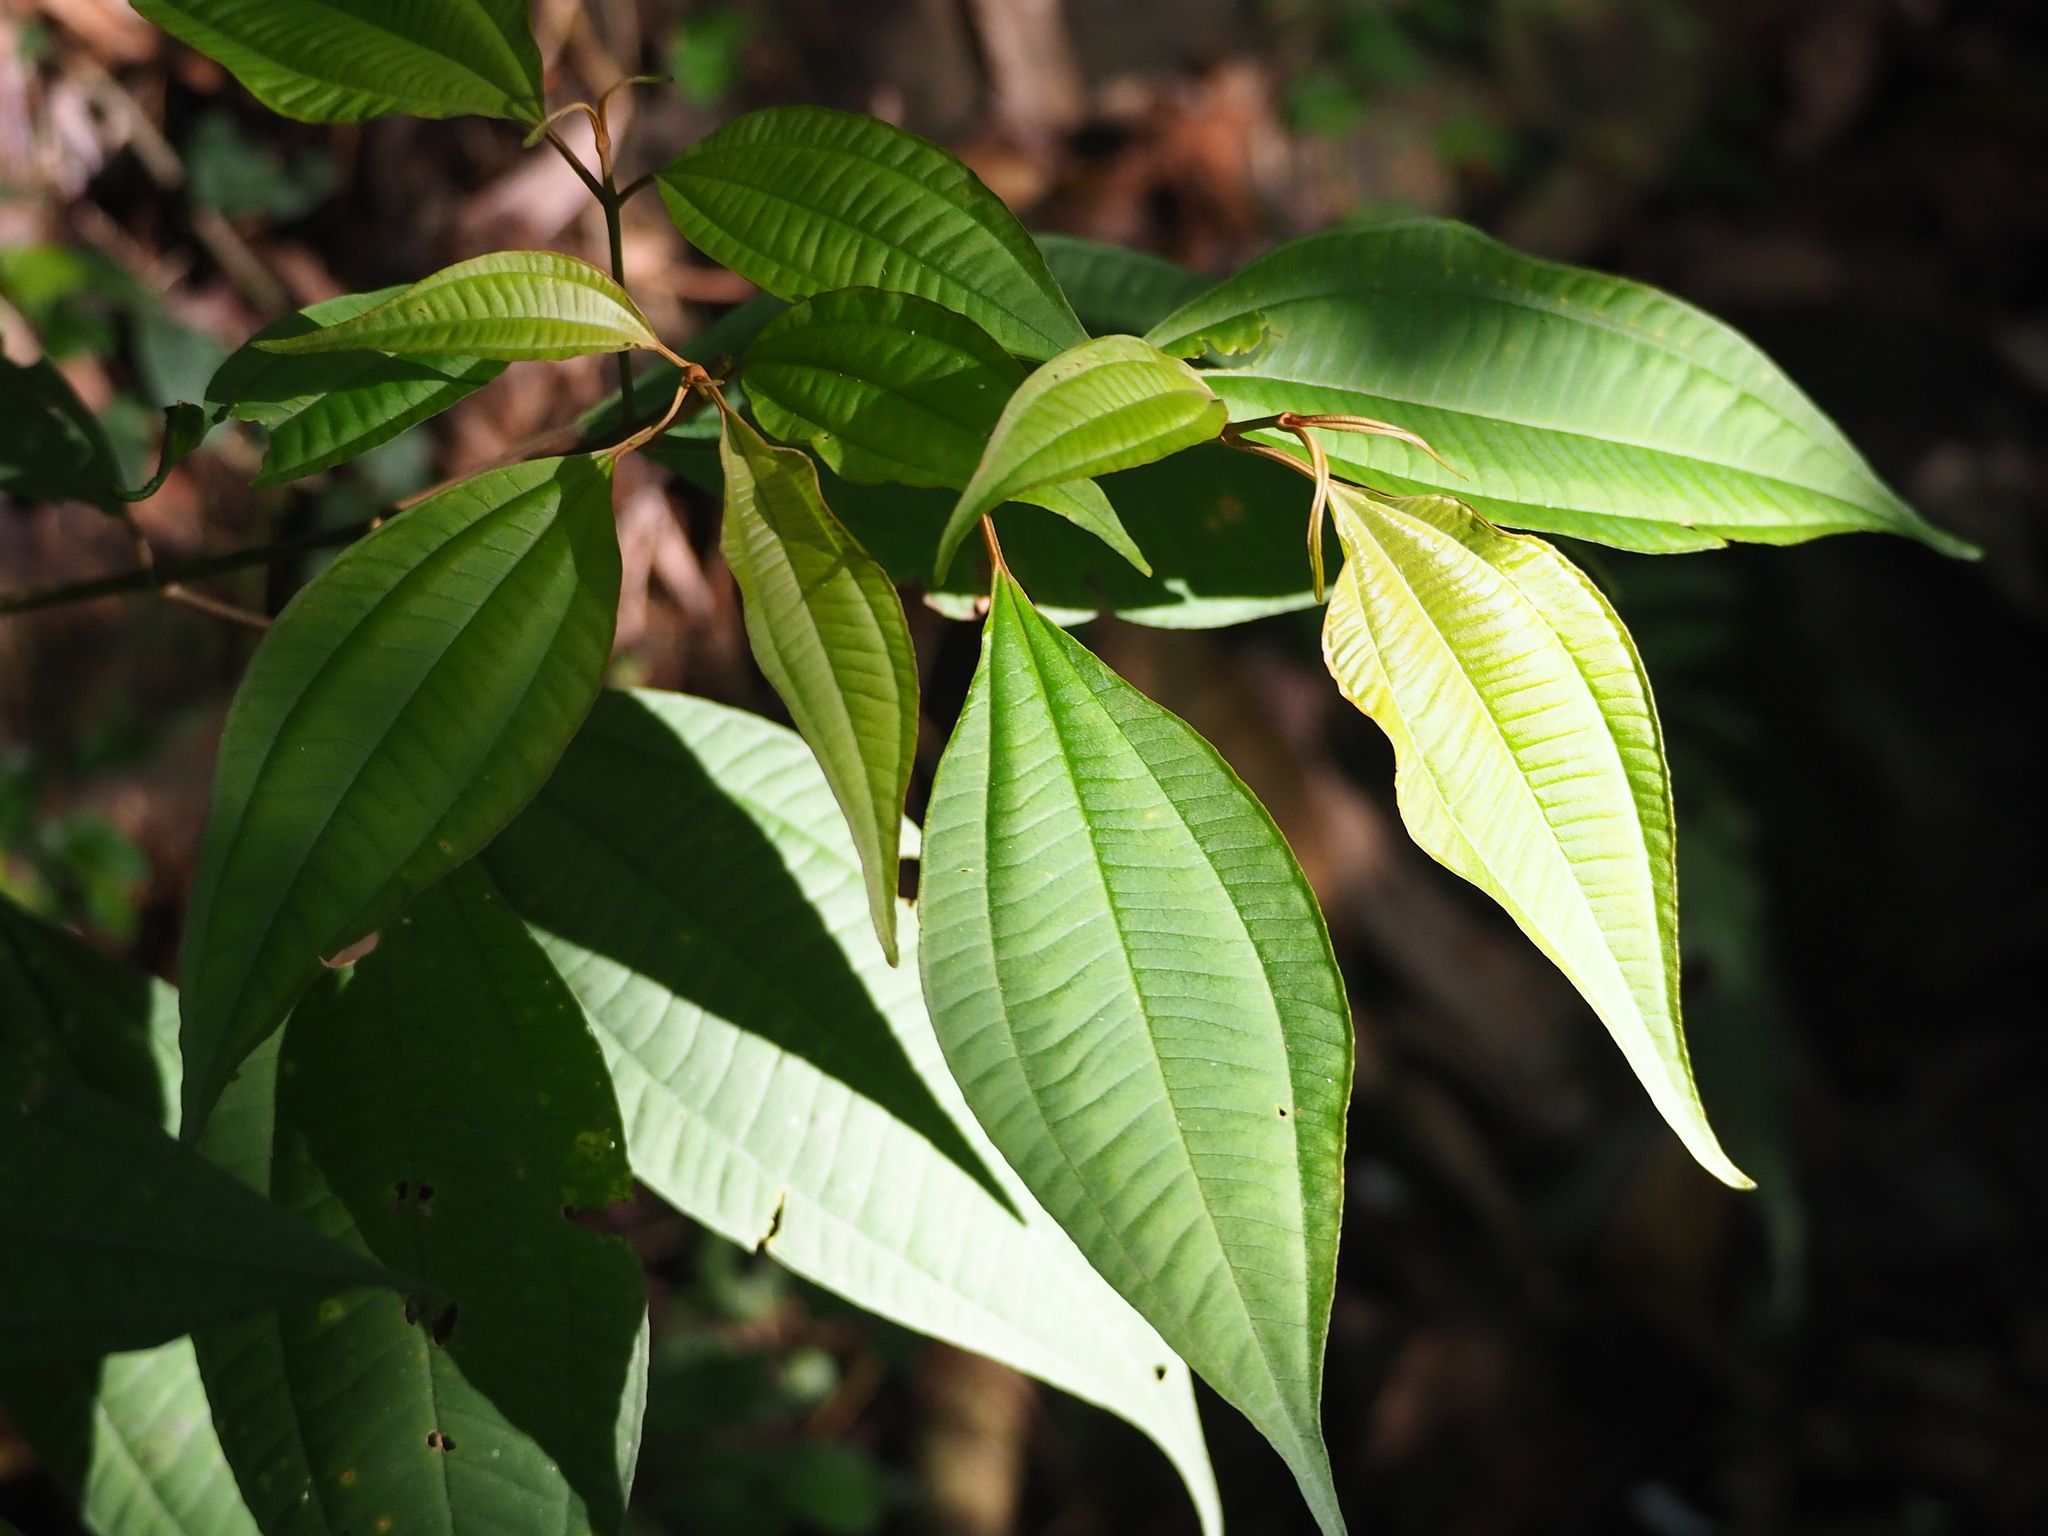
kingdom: Plantae
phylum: Tracheophyta
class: Magnoliopsida
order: Myrtales
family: Melastomataceae
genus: Blastus
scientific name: Blastus cochinchinensis
